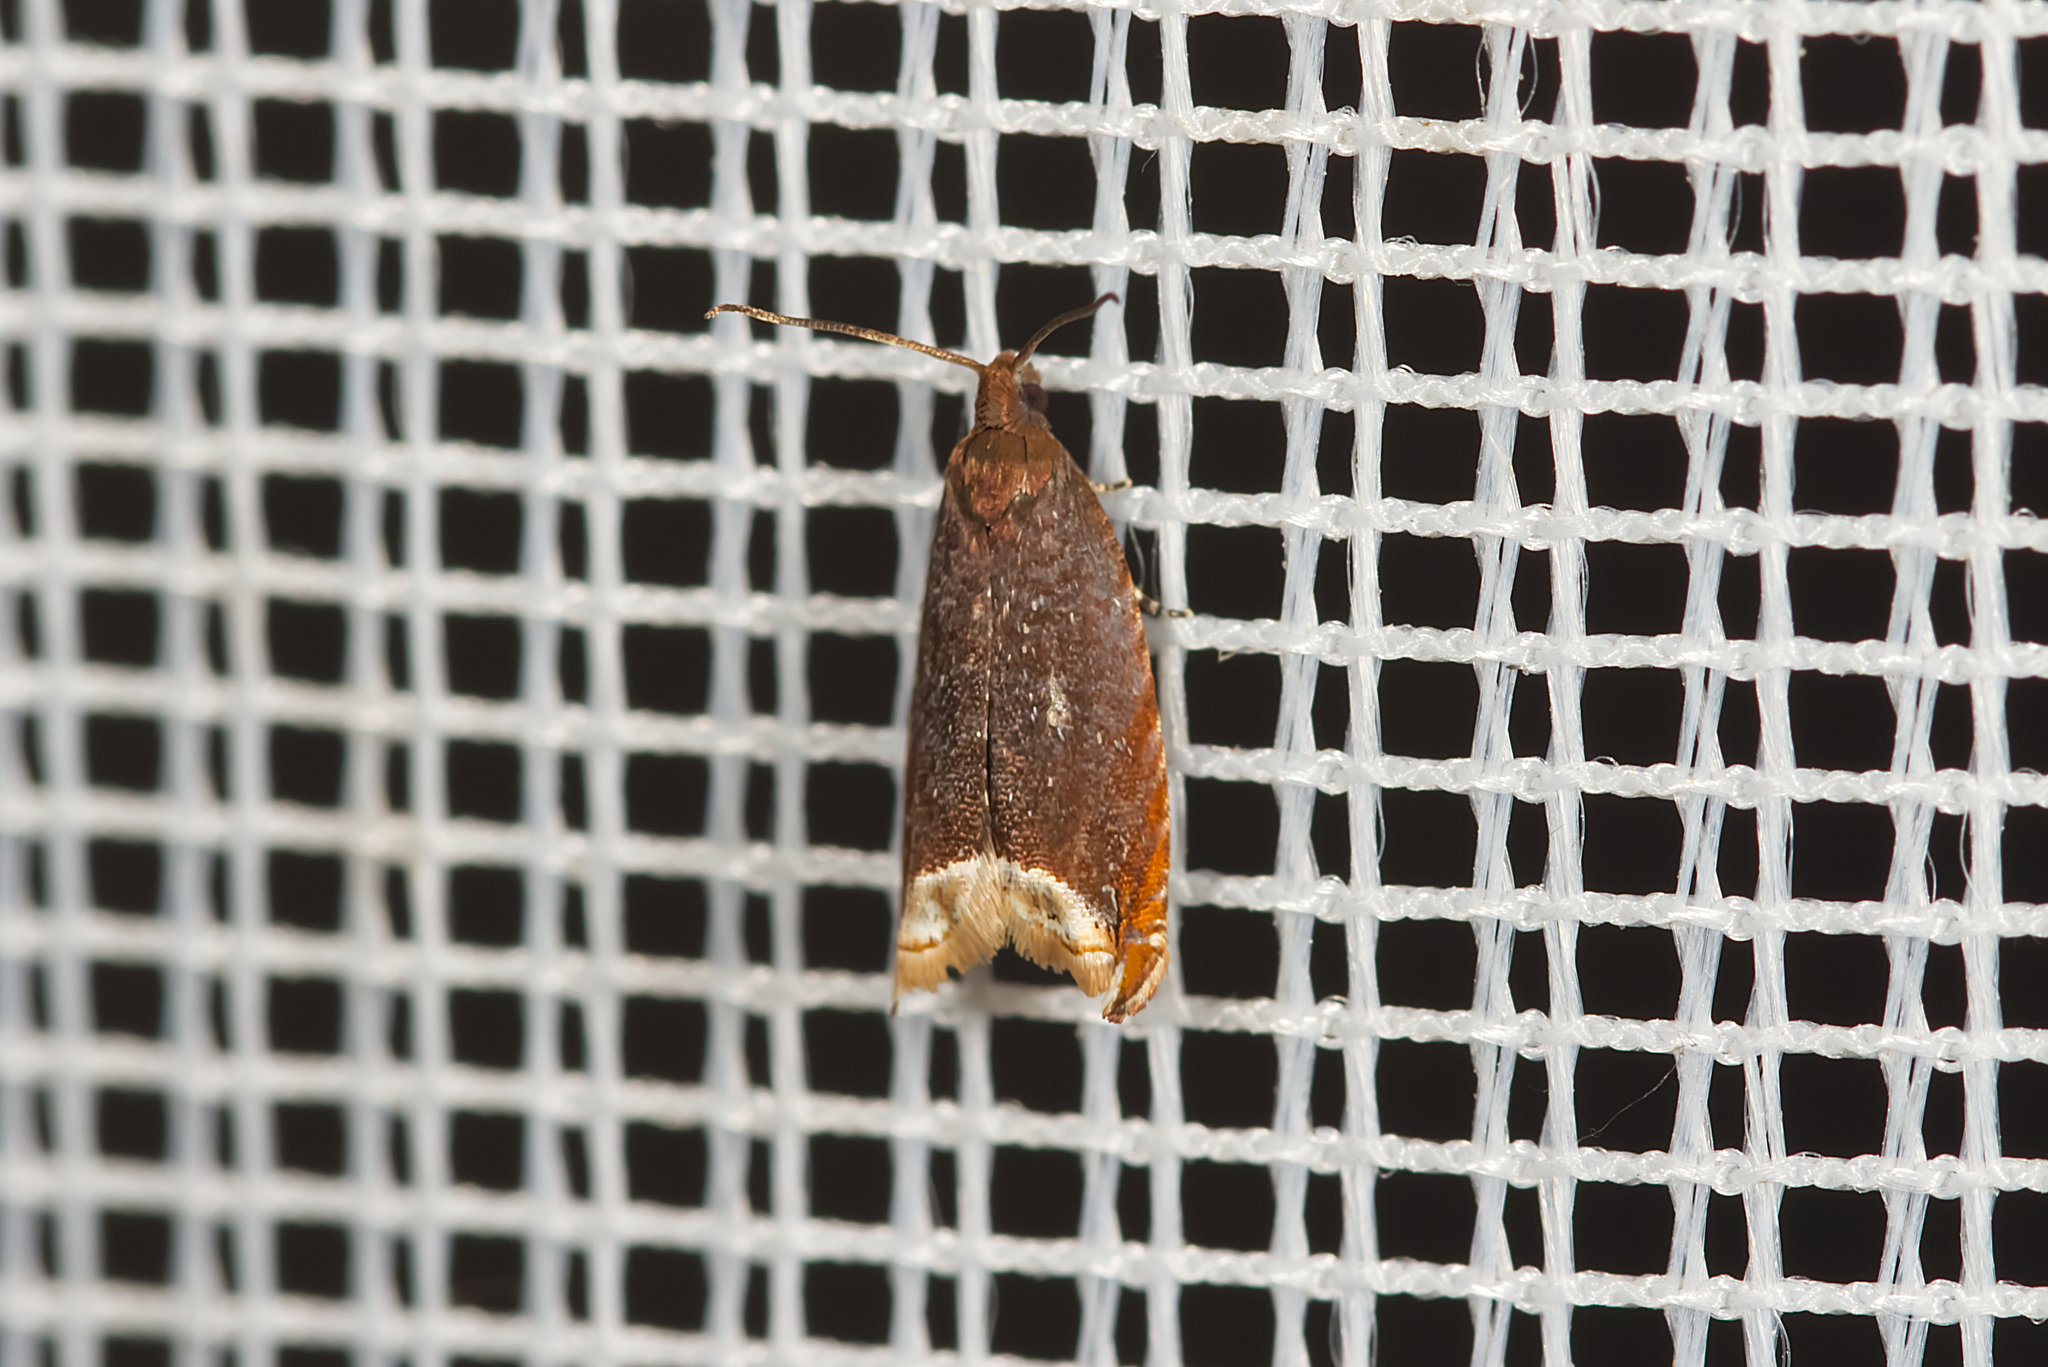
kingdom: Animalia
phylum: Arthropoda
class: Insecta
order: Lepidoptera
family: Tortricidae
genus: Ancylis
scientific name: Ancylis selenana
